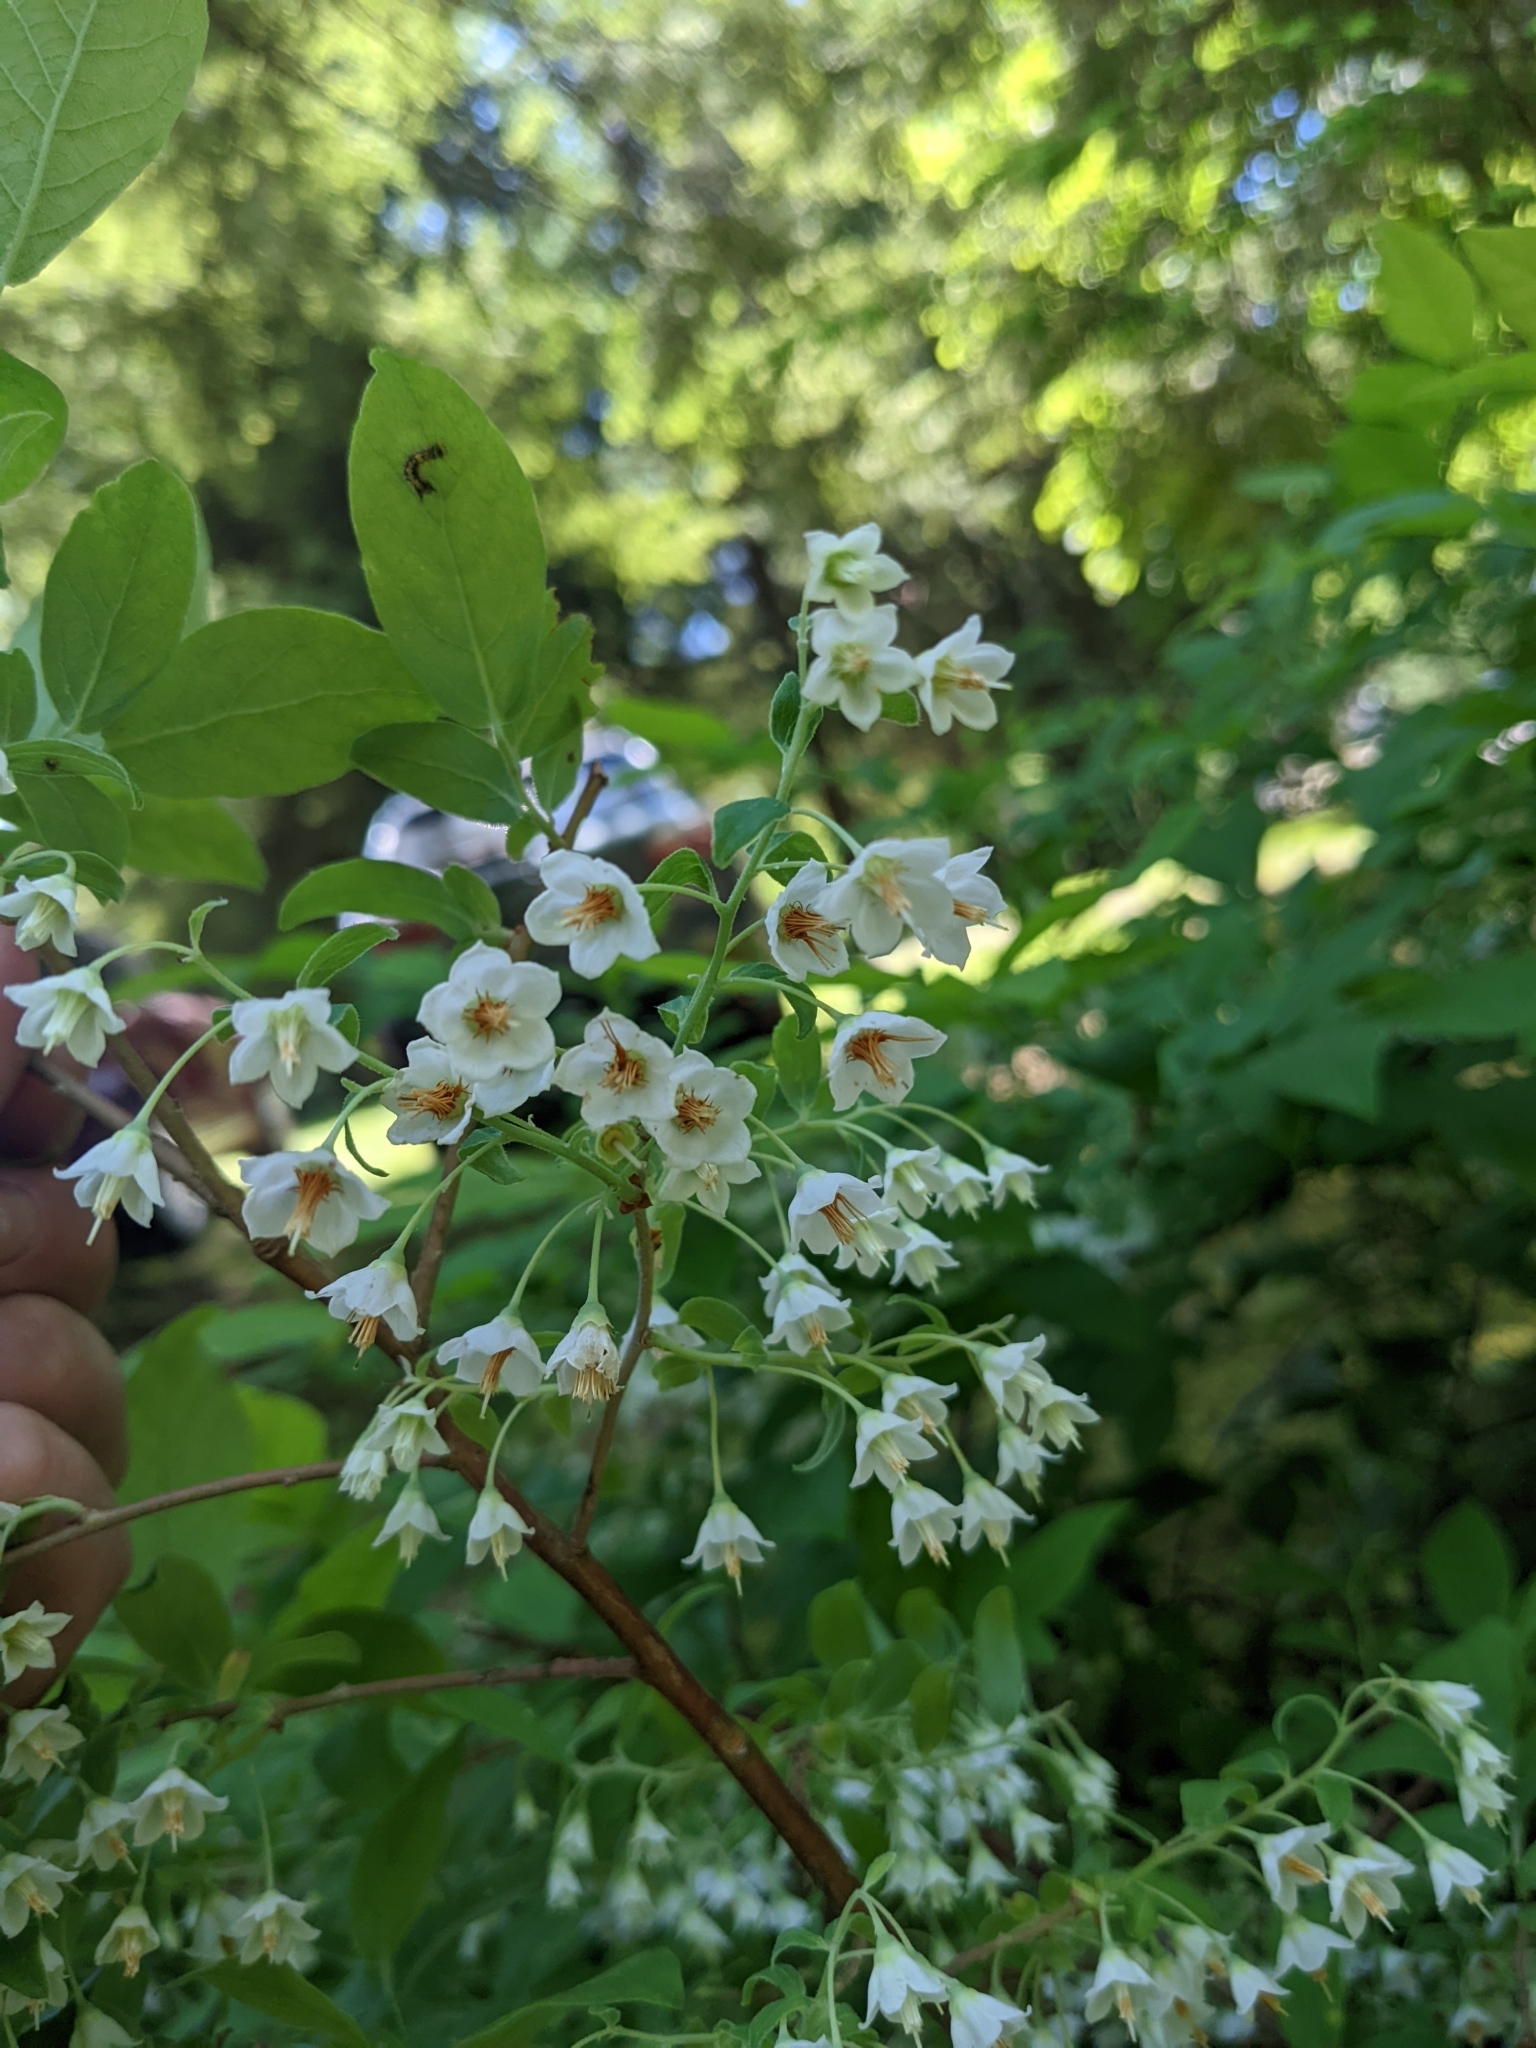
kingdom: Plantae
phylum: Tracheophyta
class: Magnoliopsida
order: Ericales
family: Ericaceae
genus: Vaccinium
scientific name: Vaccinium stamineum
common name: Deerberry
